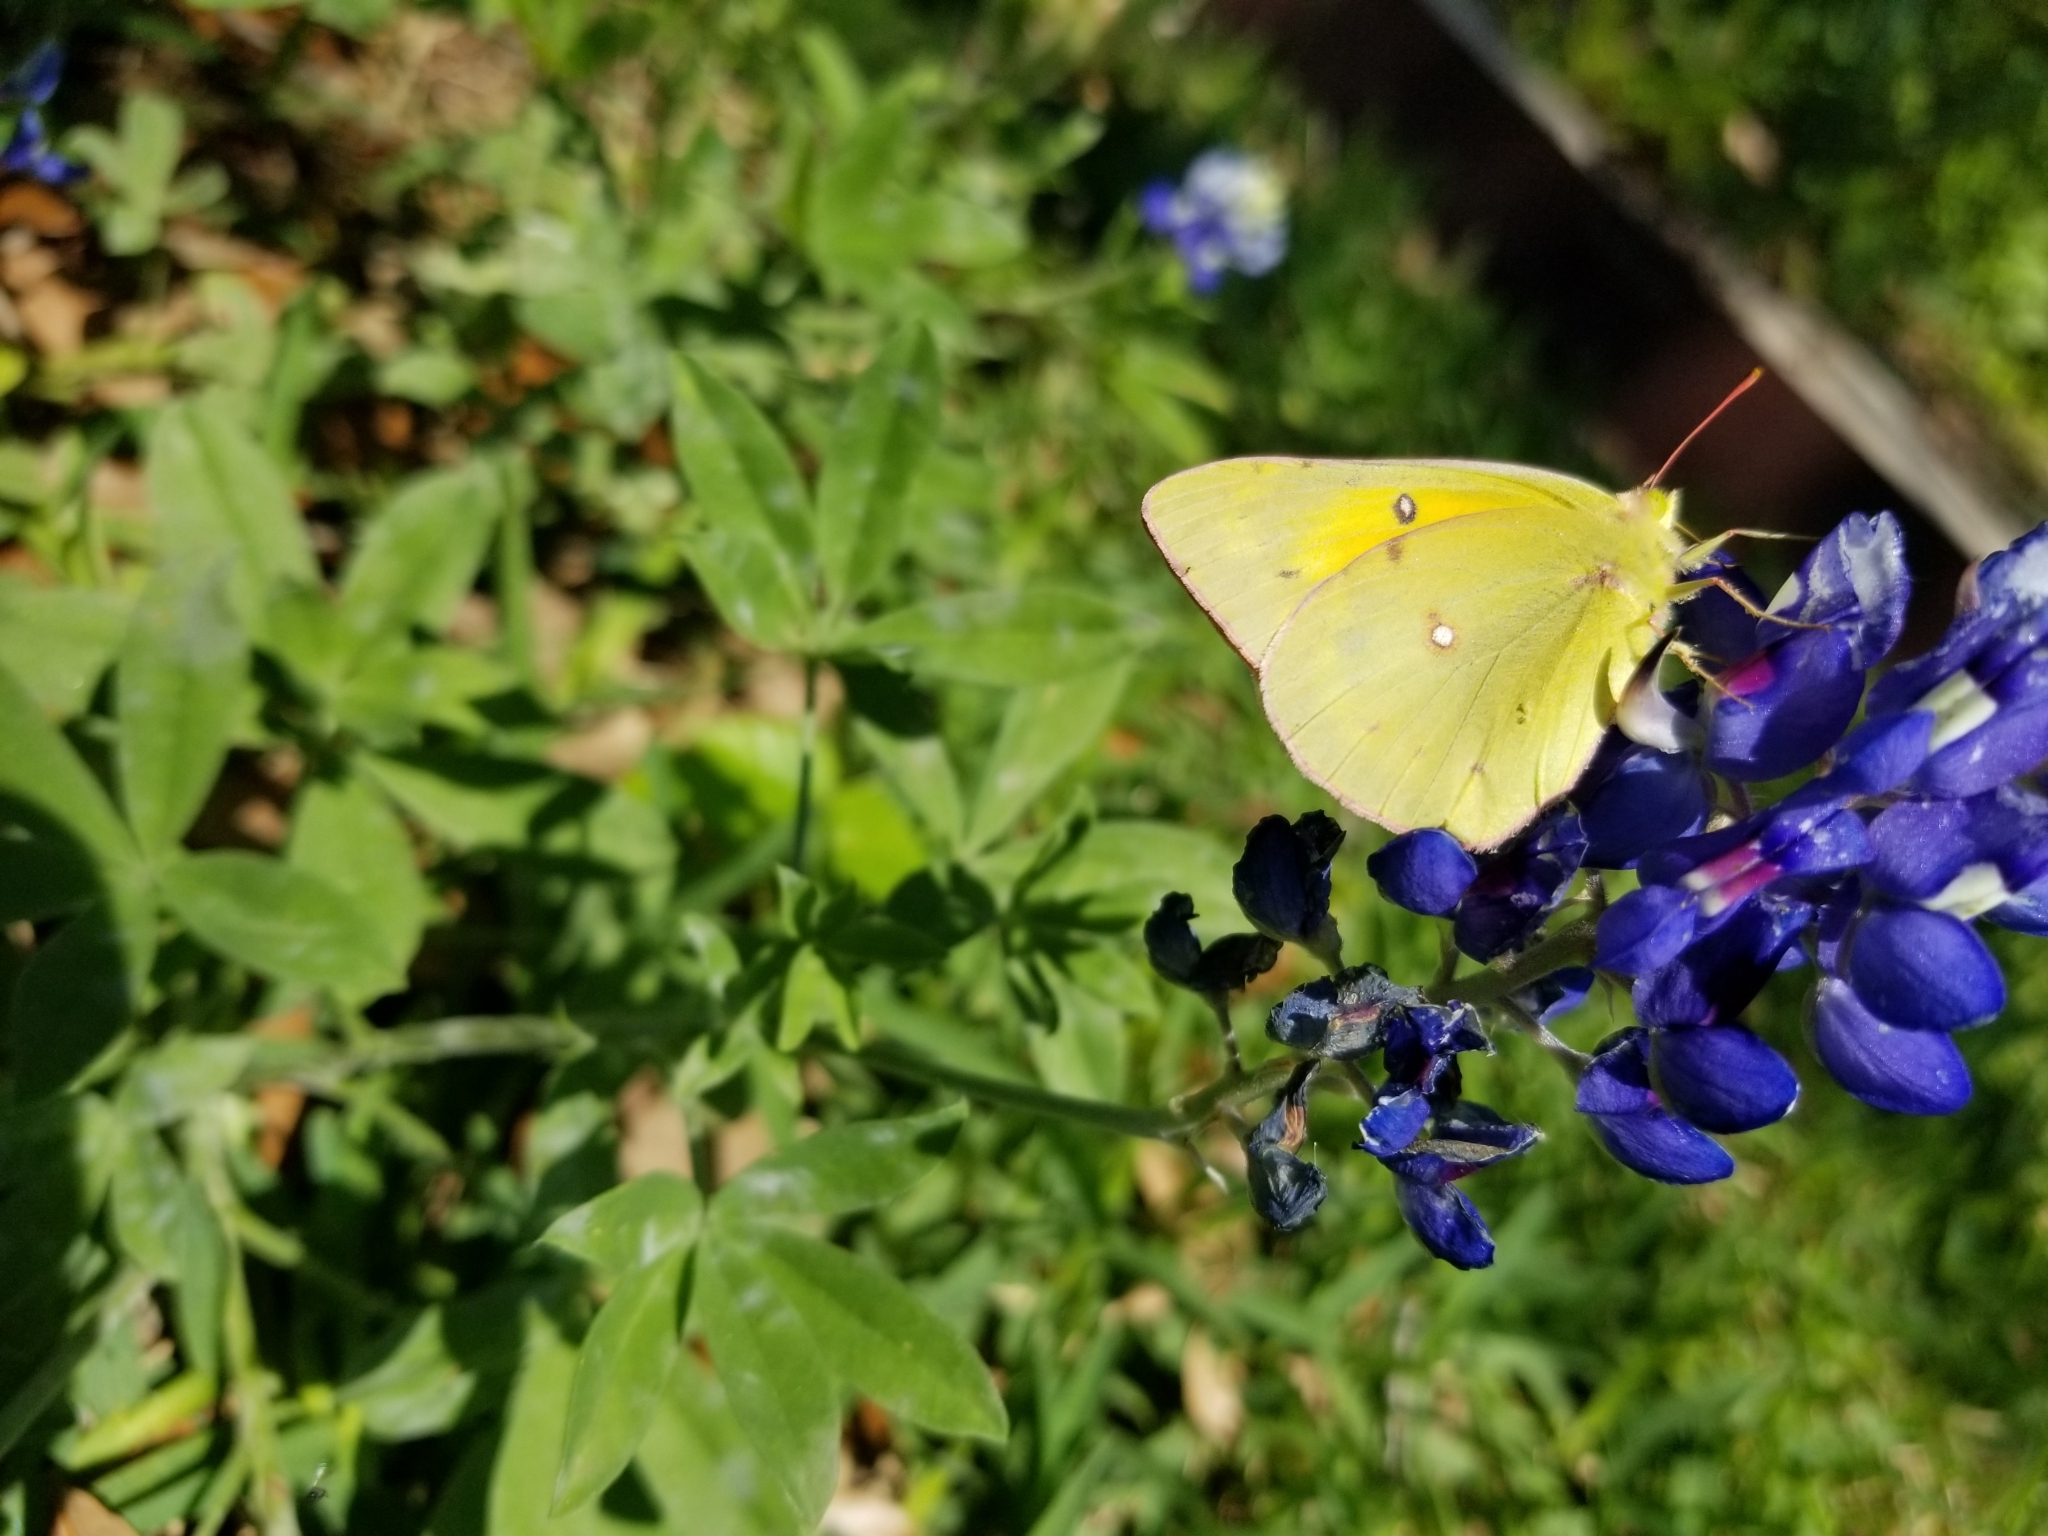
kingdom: Animalia
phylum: Arthropoda
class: Insecta
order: Lepidoptera
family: Pieridae
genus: Colias
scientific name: Colias eurytheme
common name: Alfalfa butterfly
